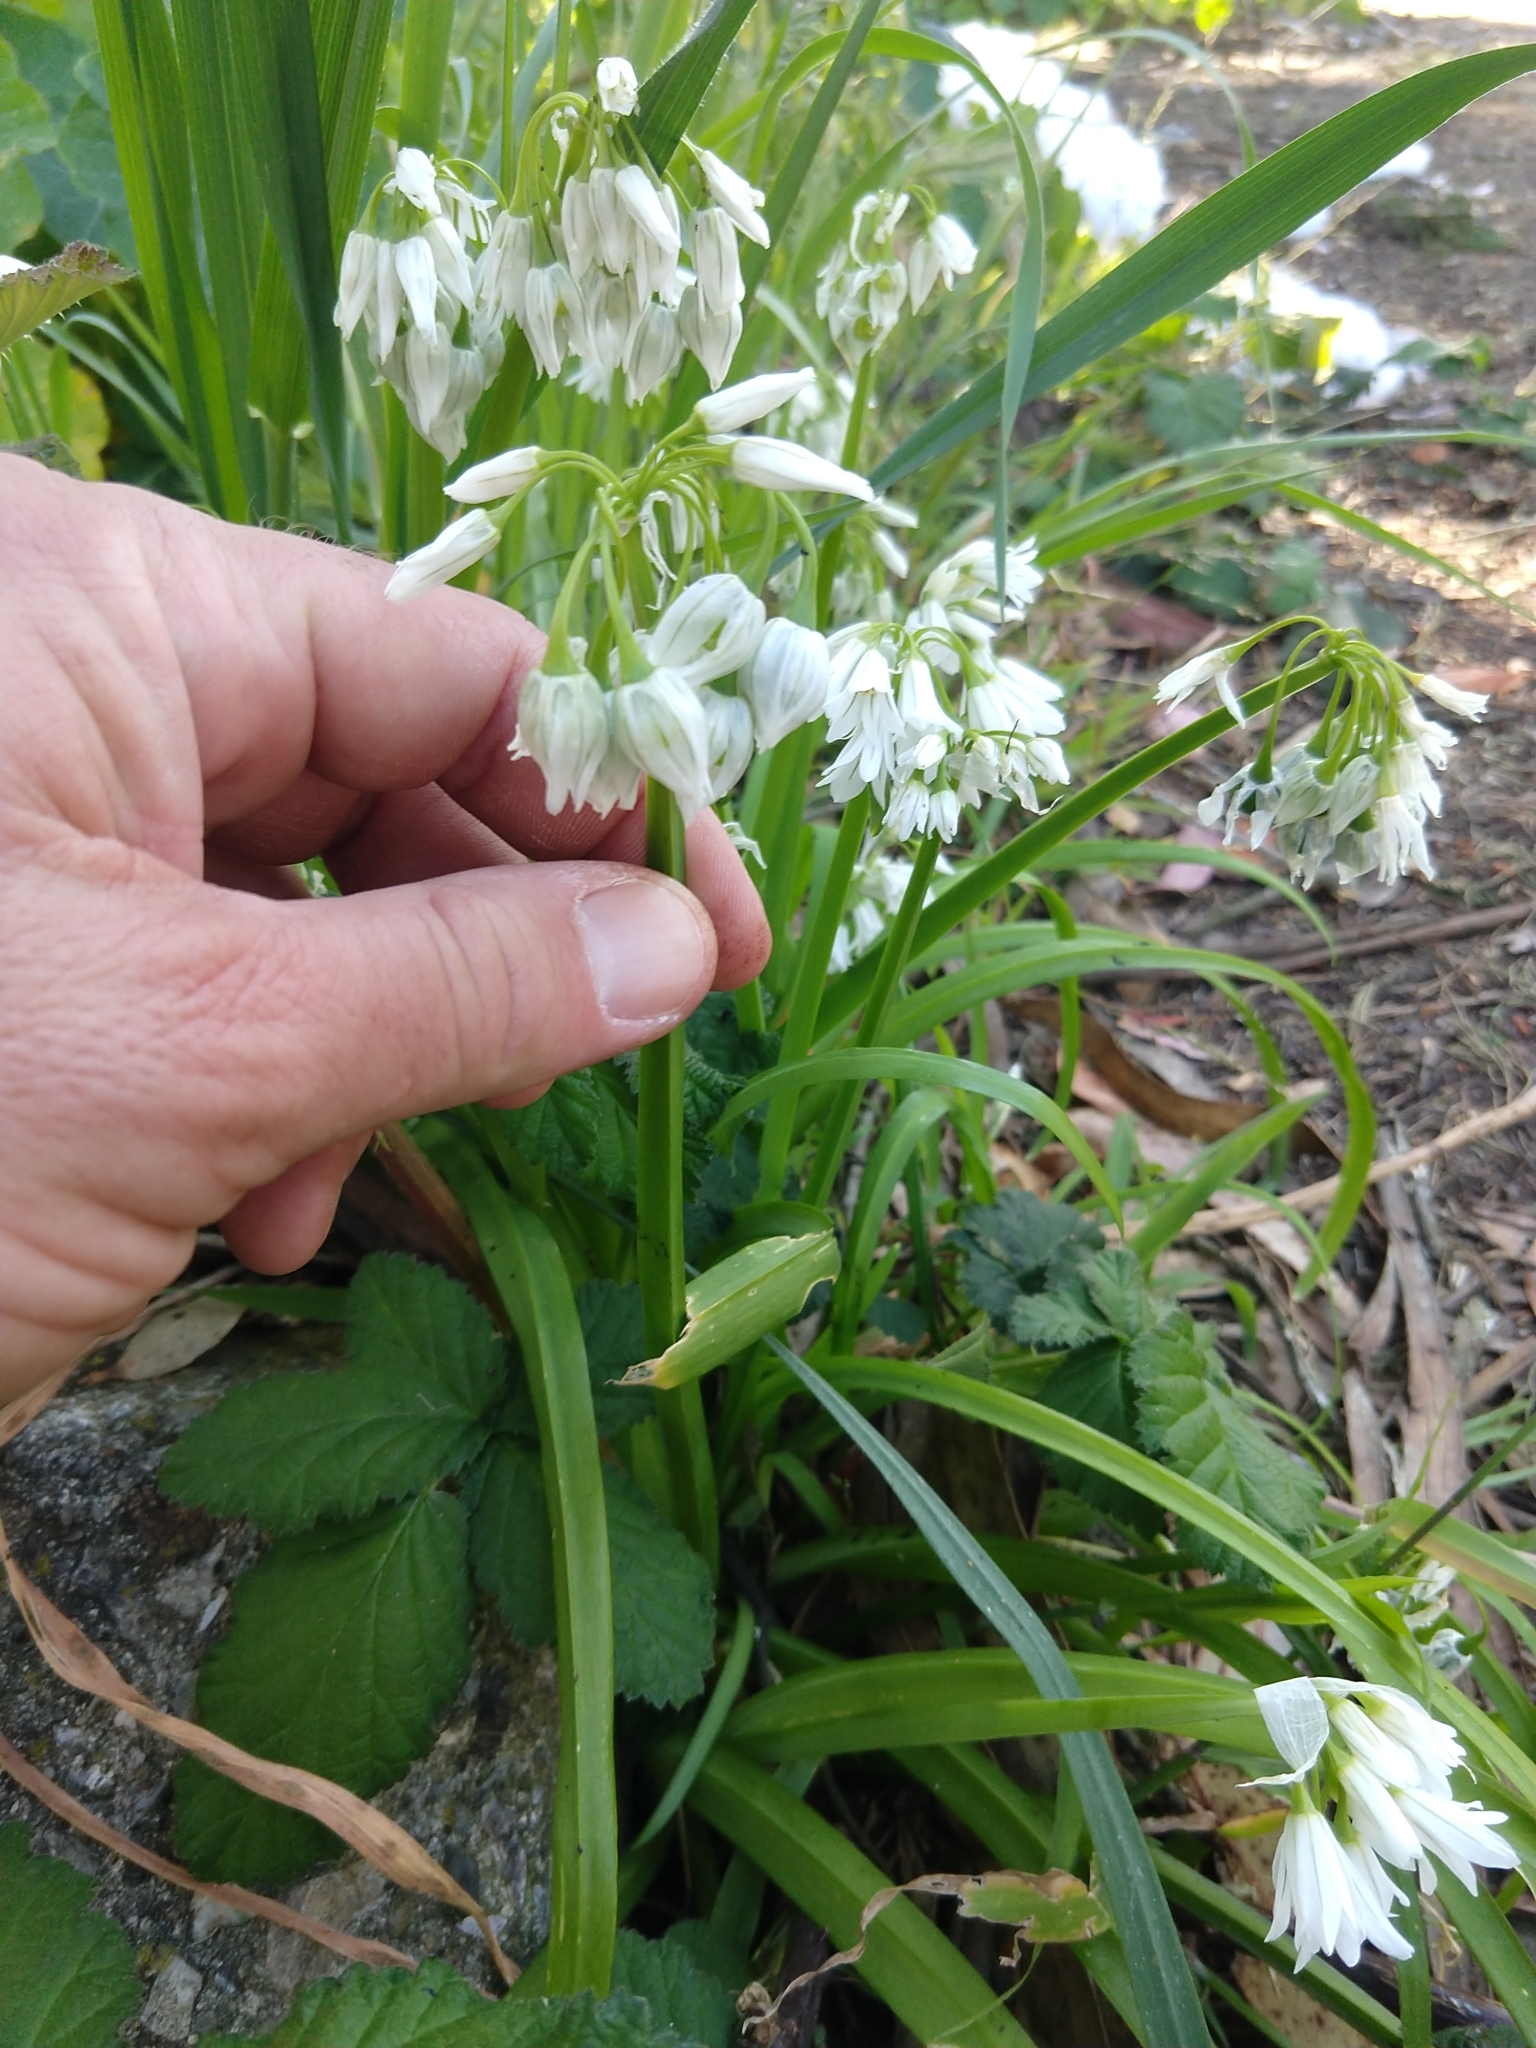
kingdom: Plantae
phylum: Tracheophyta
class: Liliopsida
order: Asparagales
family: Amaryllidaceae
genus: Allium
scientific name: Allium triquetrum
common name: Three-cornered garlic
